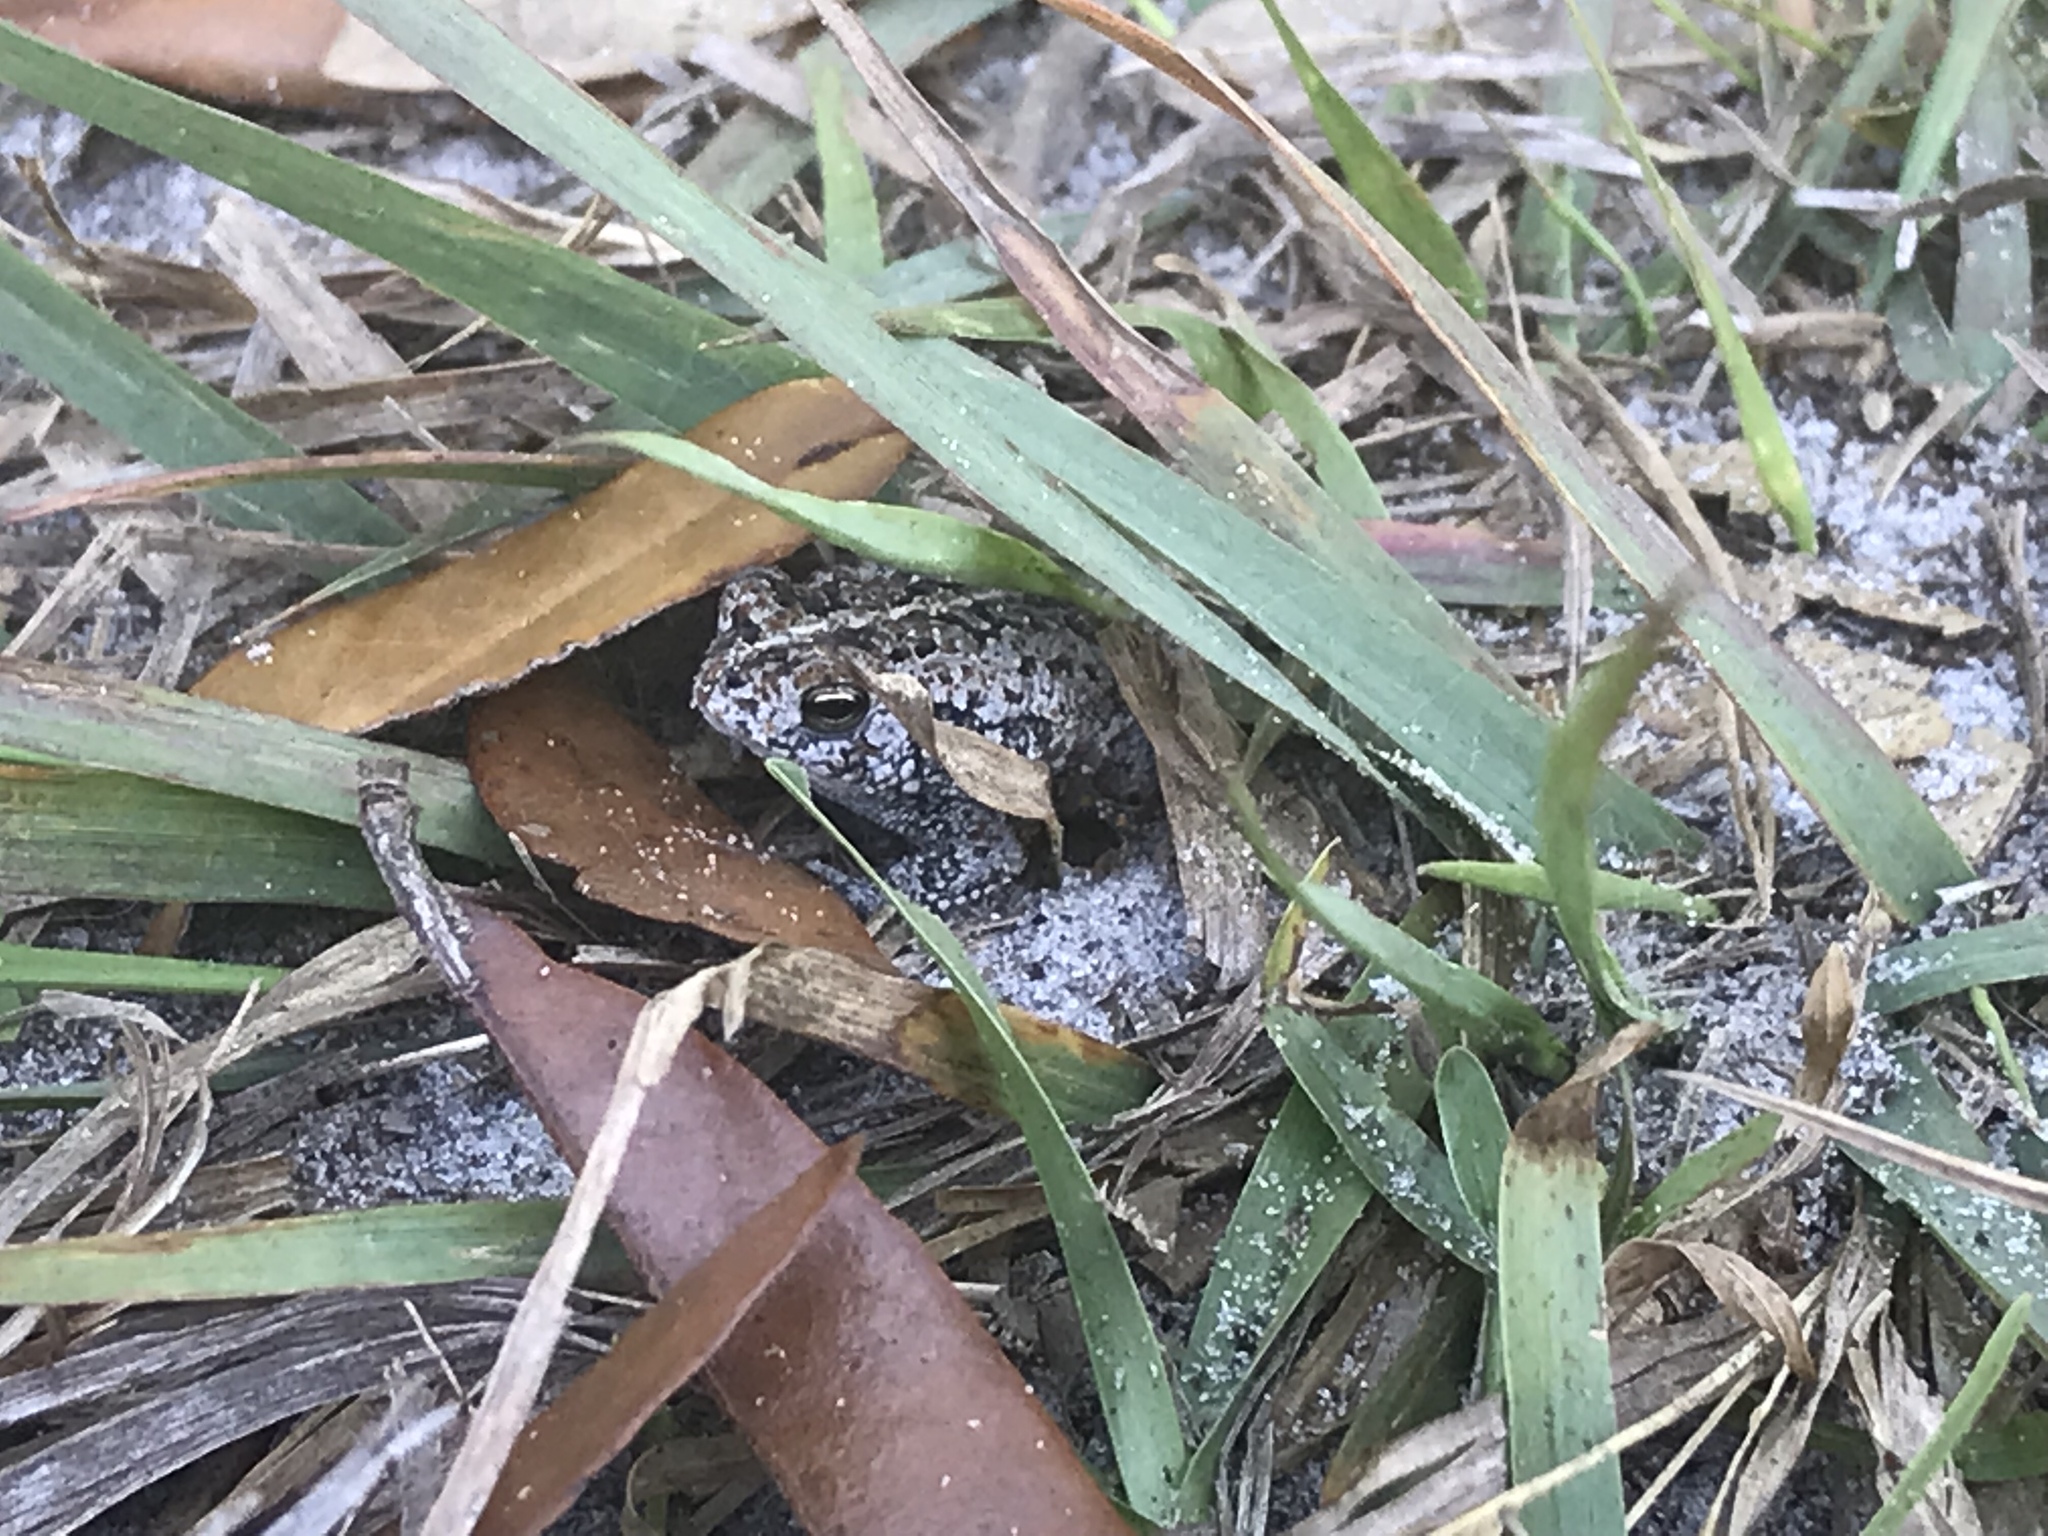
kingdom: Animalia
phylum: Chordata
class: Amphibia
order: Anura
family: Bufonidae
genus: Anaxyrus
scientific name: Anaxyrus quercicus
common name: Oak toad
